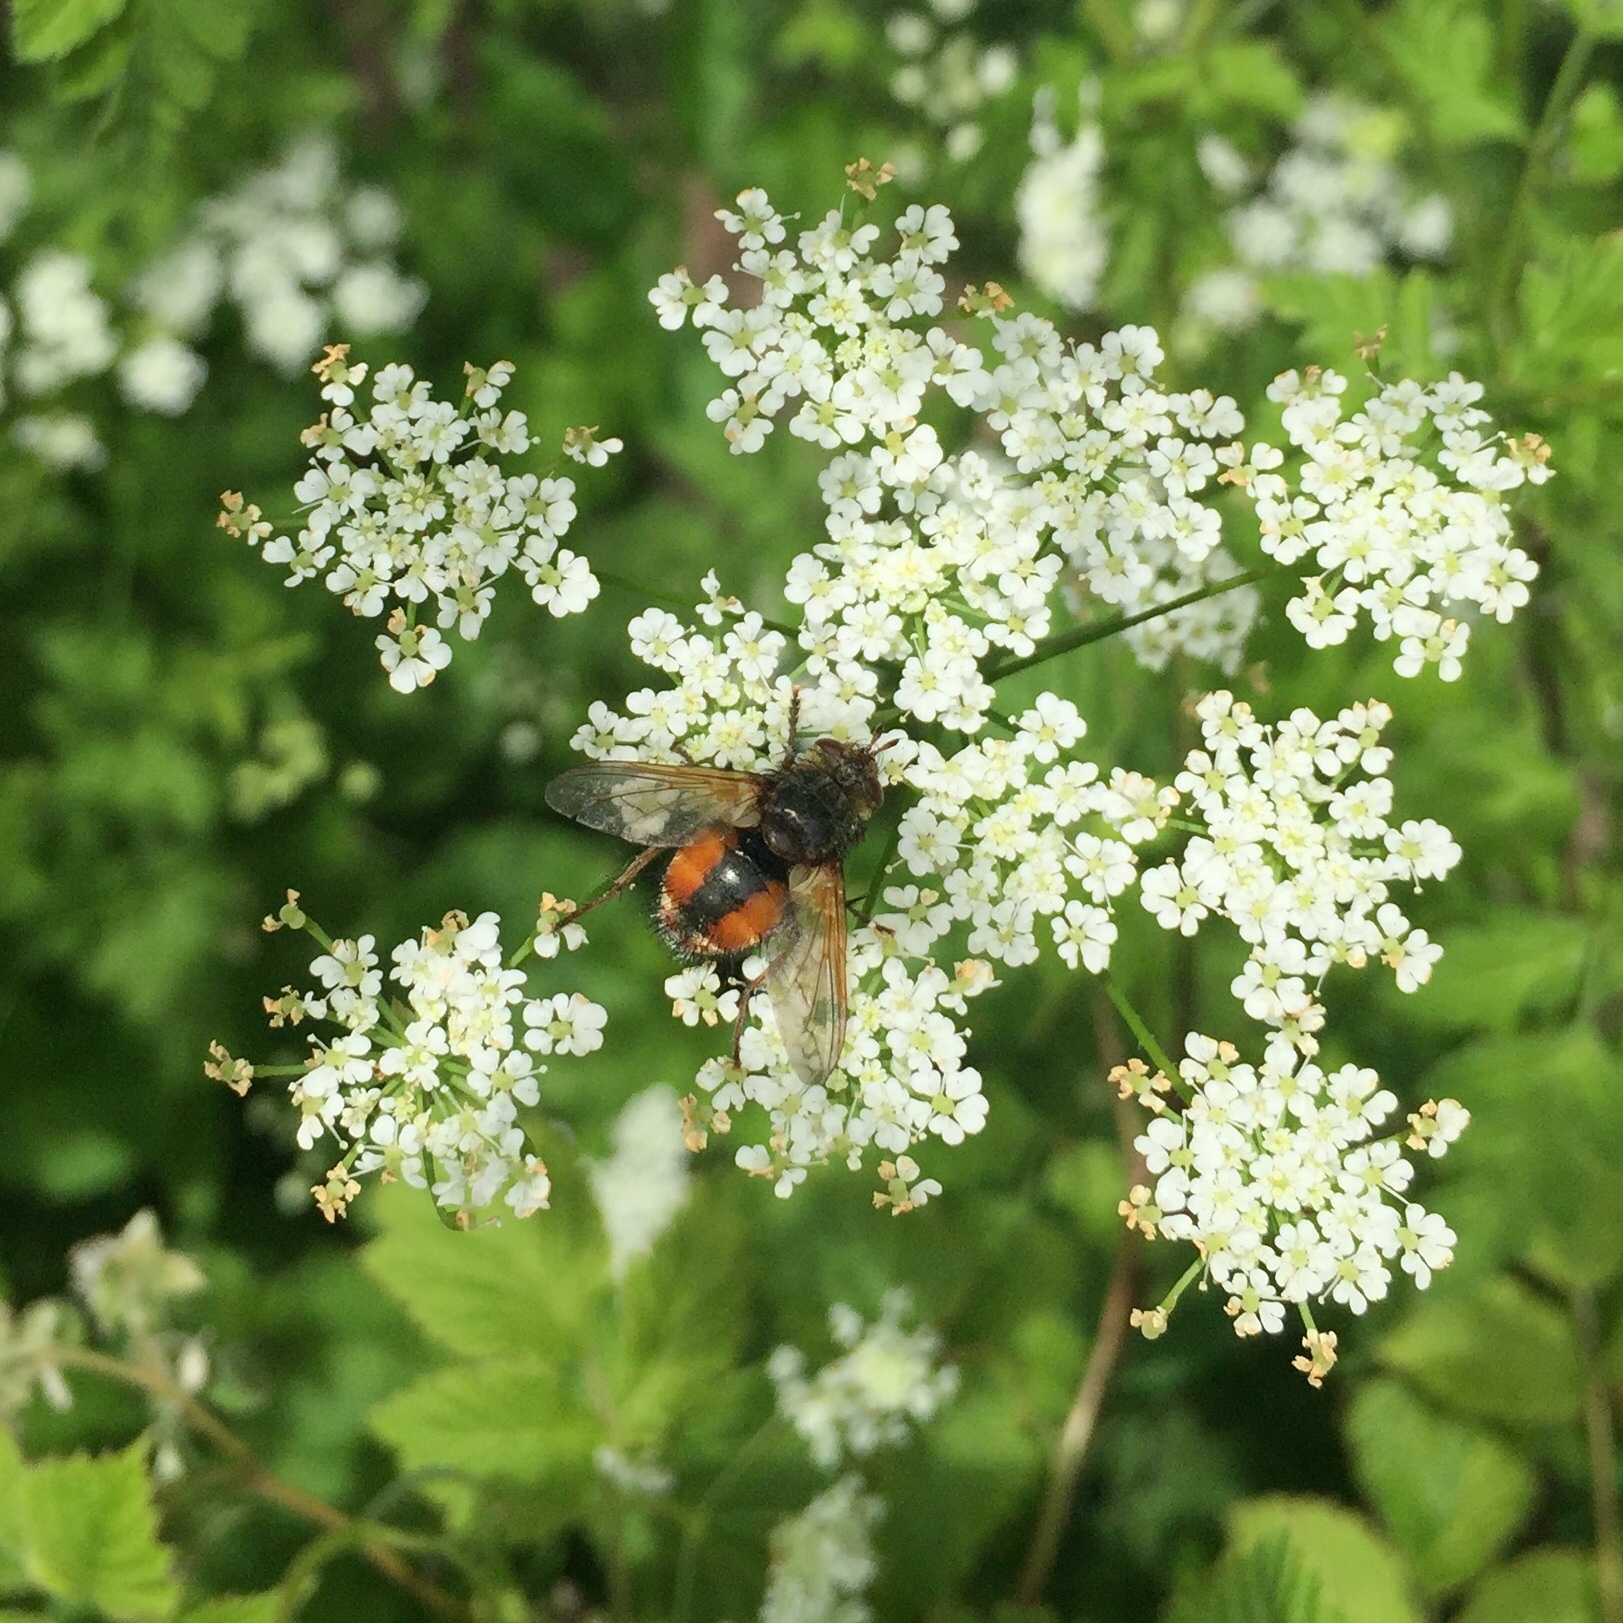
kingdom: Animalia
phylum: Arthropoda
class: Insecta
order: Diptera
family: Tachinidae
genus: Tachina
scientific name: Tachina fera
